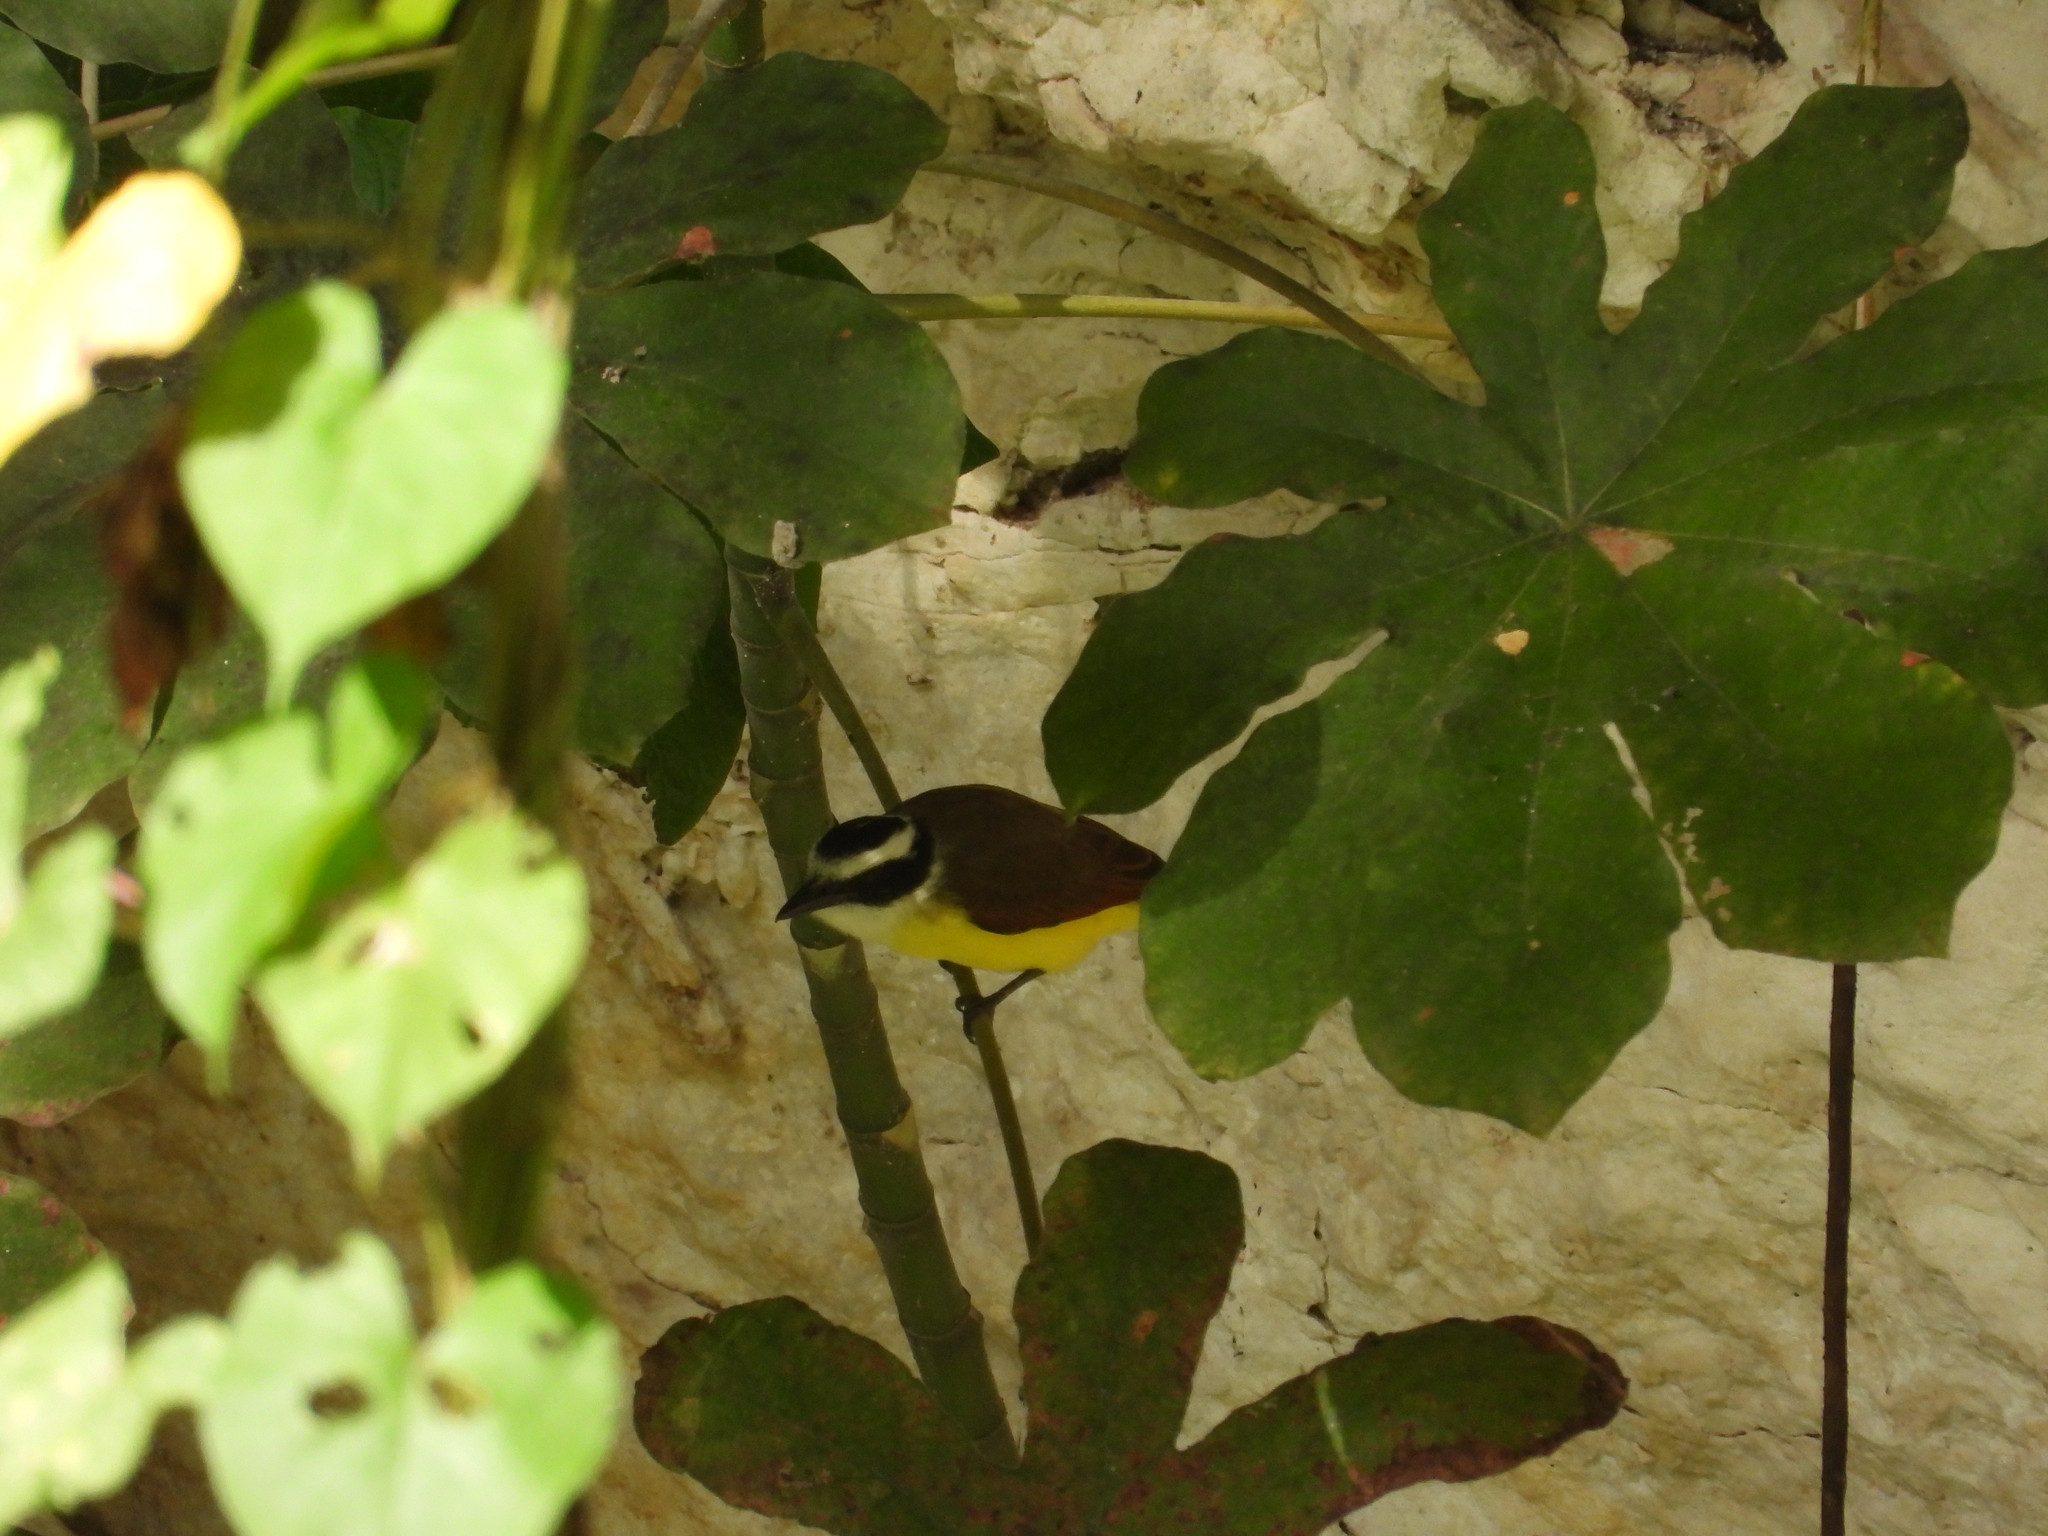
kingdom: Animalia
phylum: Chordata
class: Aves
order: Passeriformes
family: Tyrannidae
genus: Pitangus
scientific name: Pitangus sulphuratus
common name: Great kiskadee
